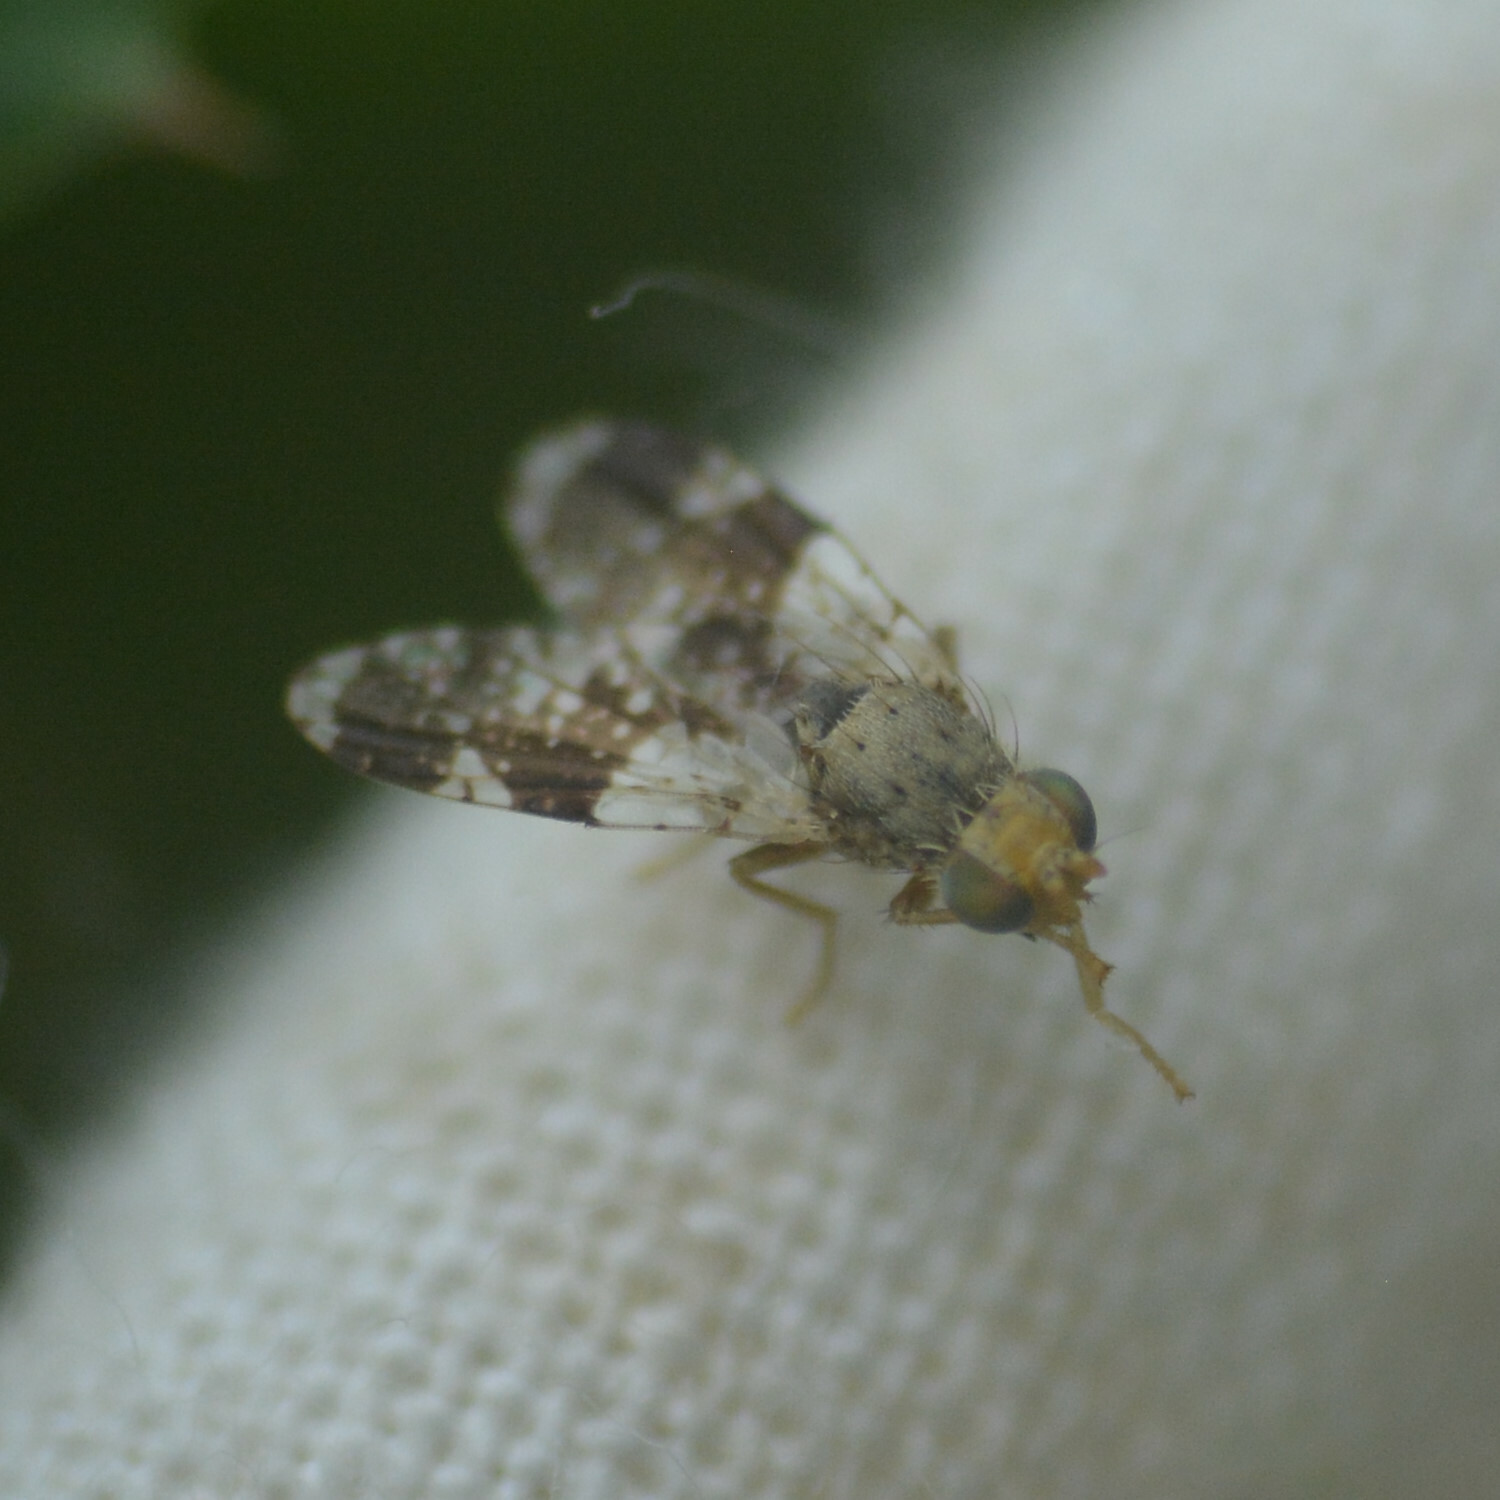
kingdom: Animalia
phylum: Arthropoda
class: Insecta
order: Diptera
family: Tephritidae
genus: Tephritis
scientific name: Tephritis formosa
